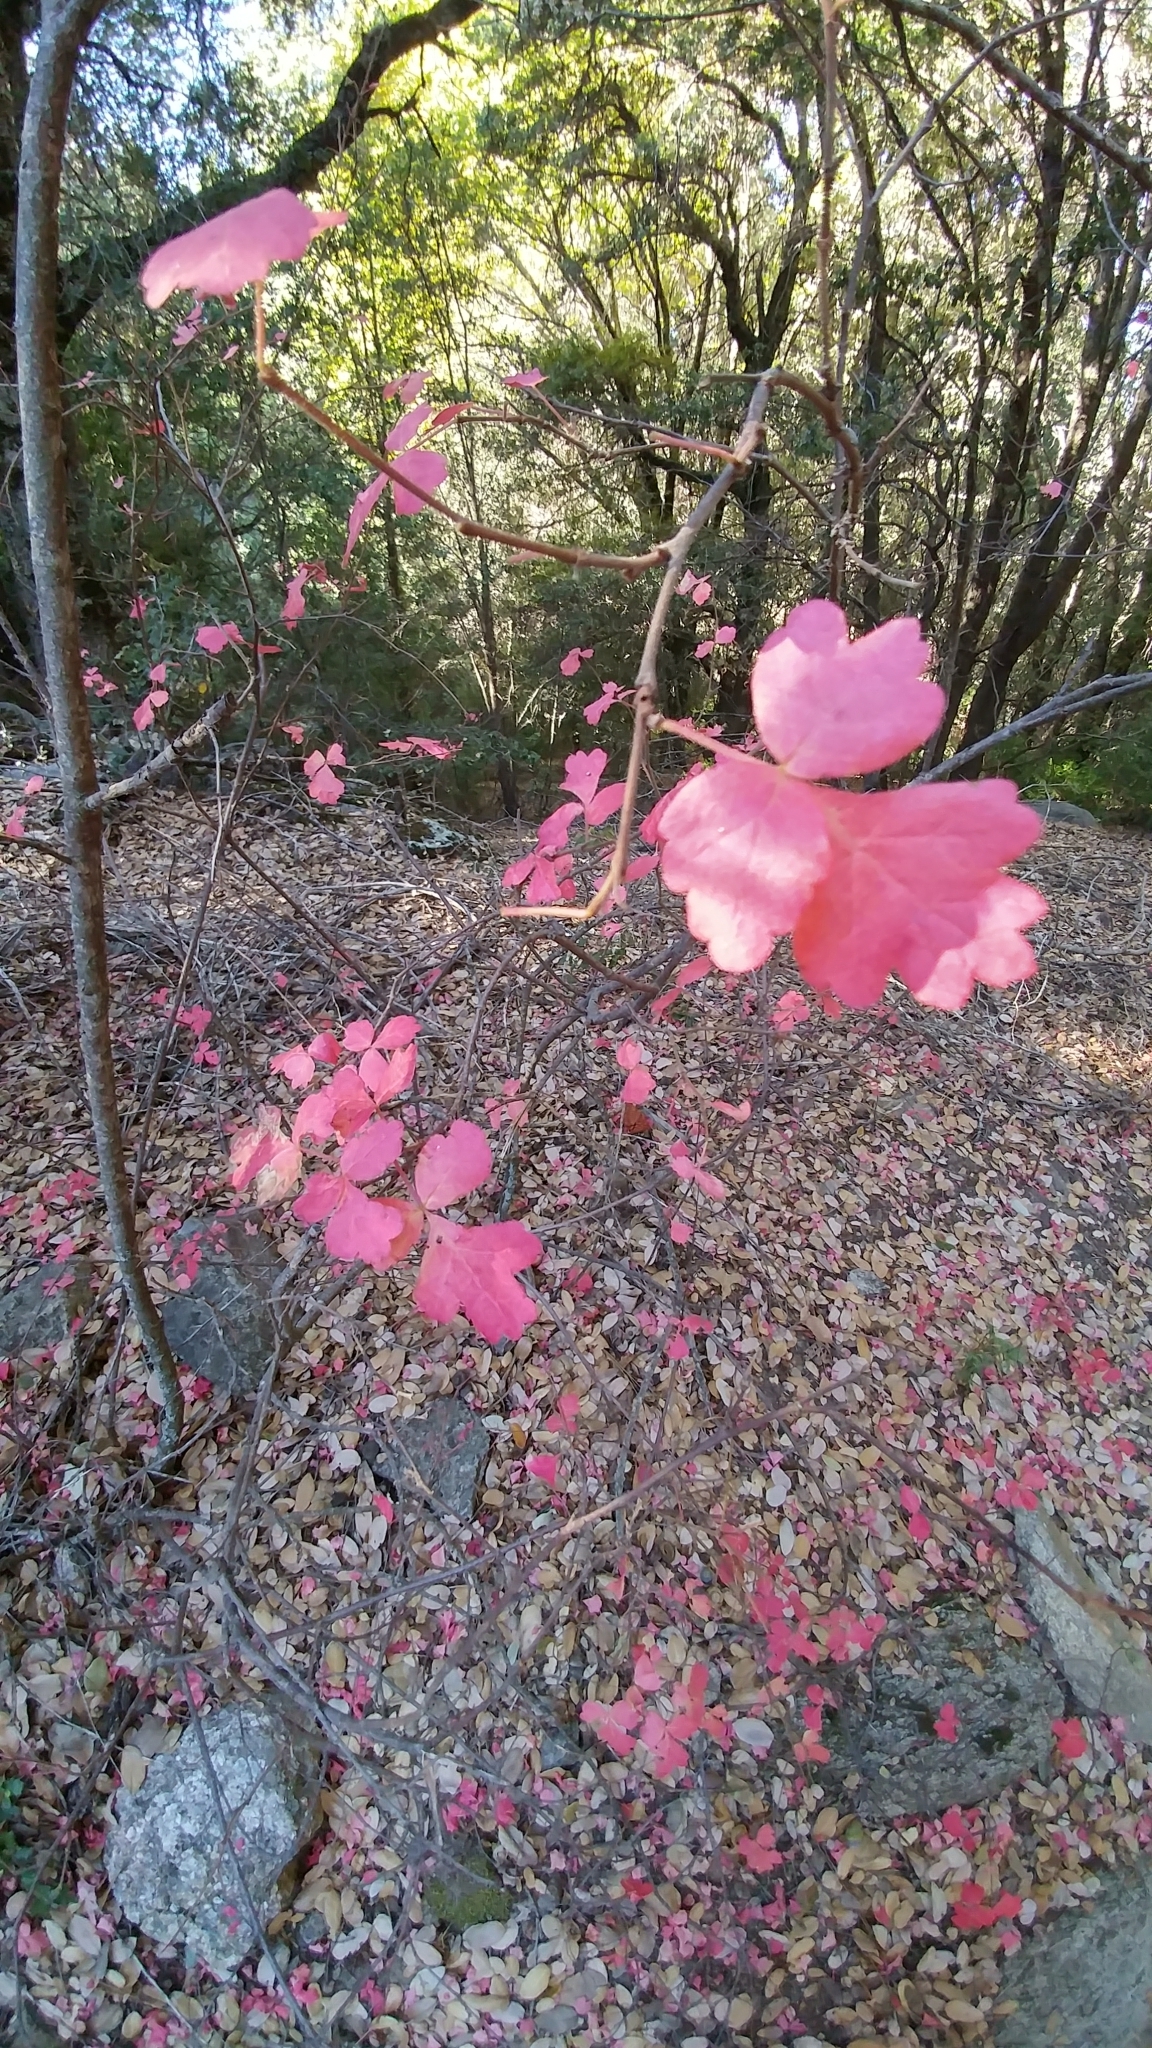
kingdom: Plantae
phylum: Tracheophyta
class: Magnoliopsida
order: Sapindales
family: Anacardiaceae
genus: Rhus
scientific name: Rhus aromatica
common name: Aromatic sumac
